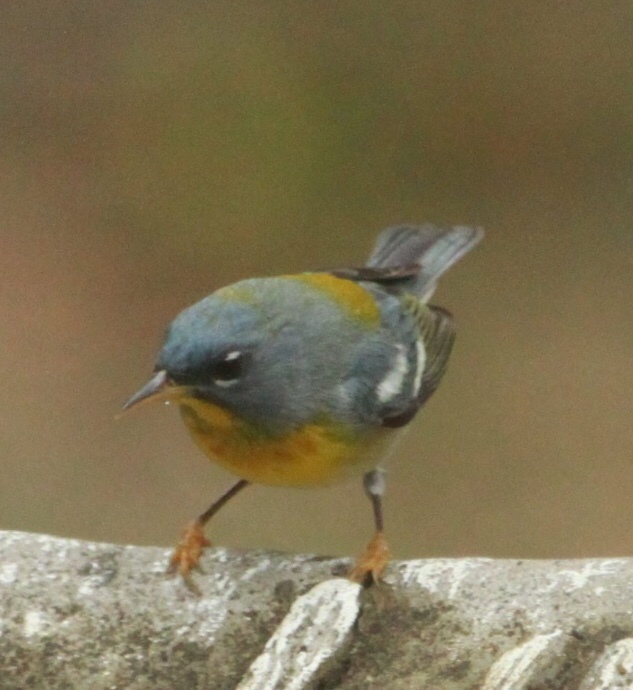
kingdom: Animalia
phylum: Chordata
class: Aves
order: Passeriformes
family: Parulidae
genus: Setophaga
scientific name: Setophaga americana
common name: Northern parula
